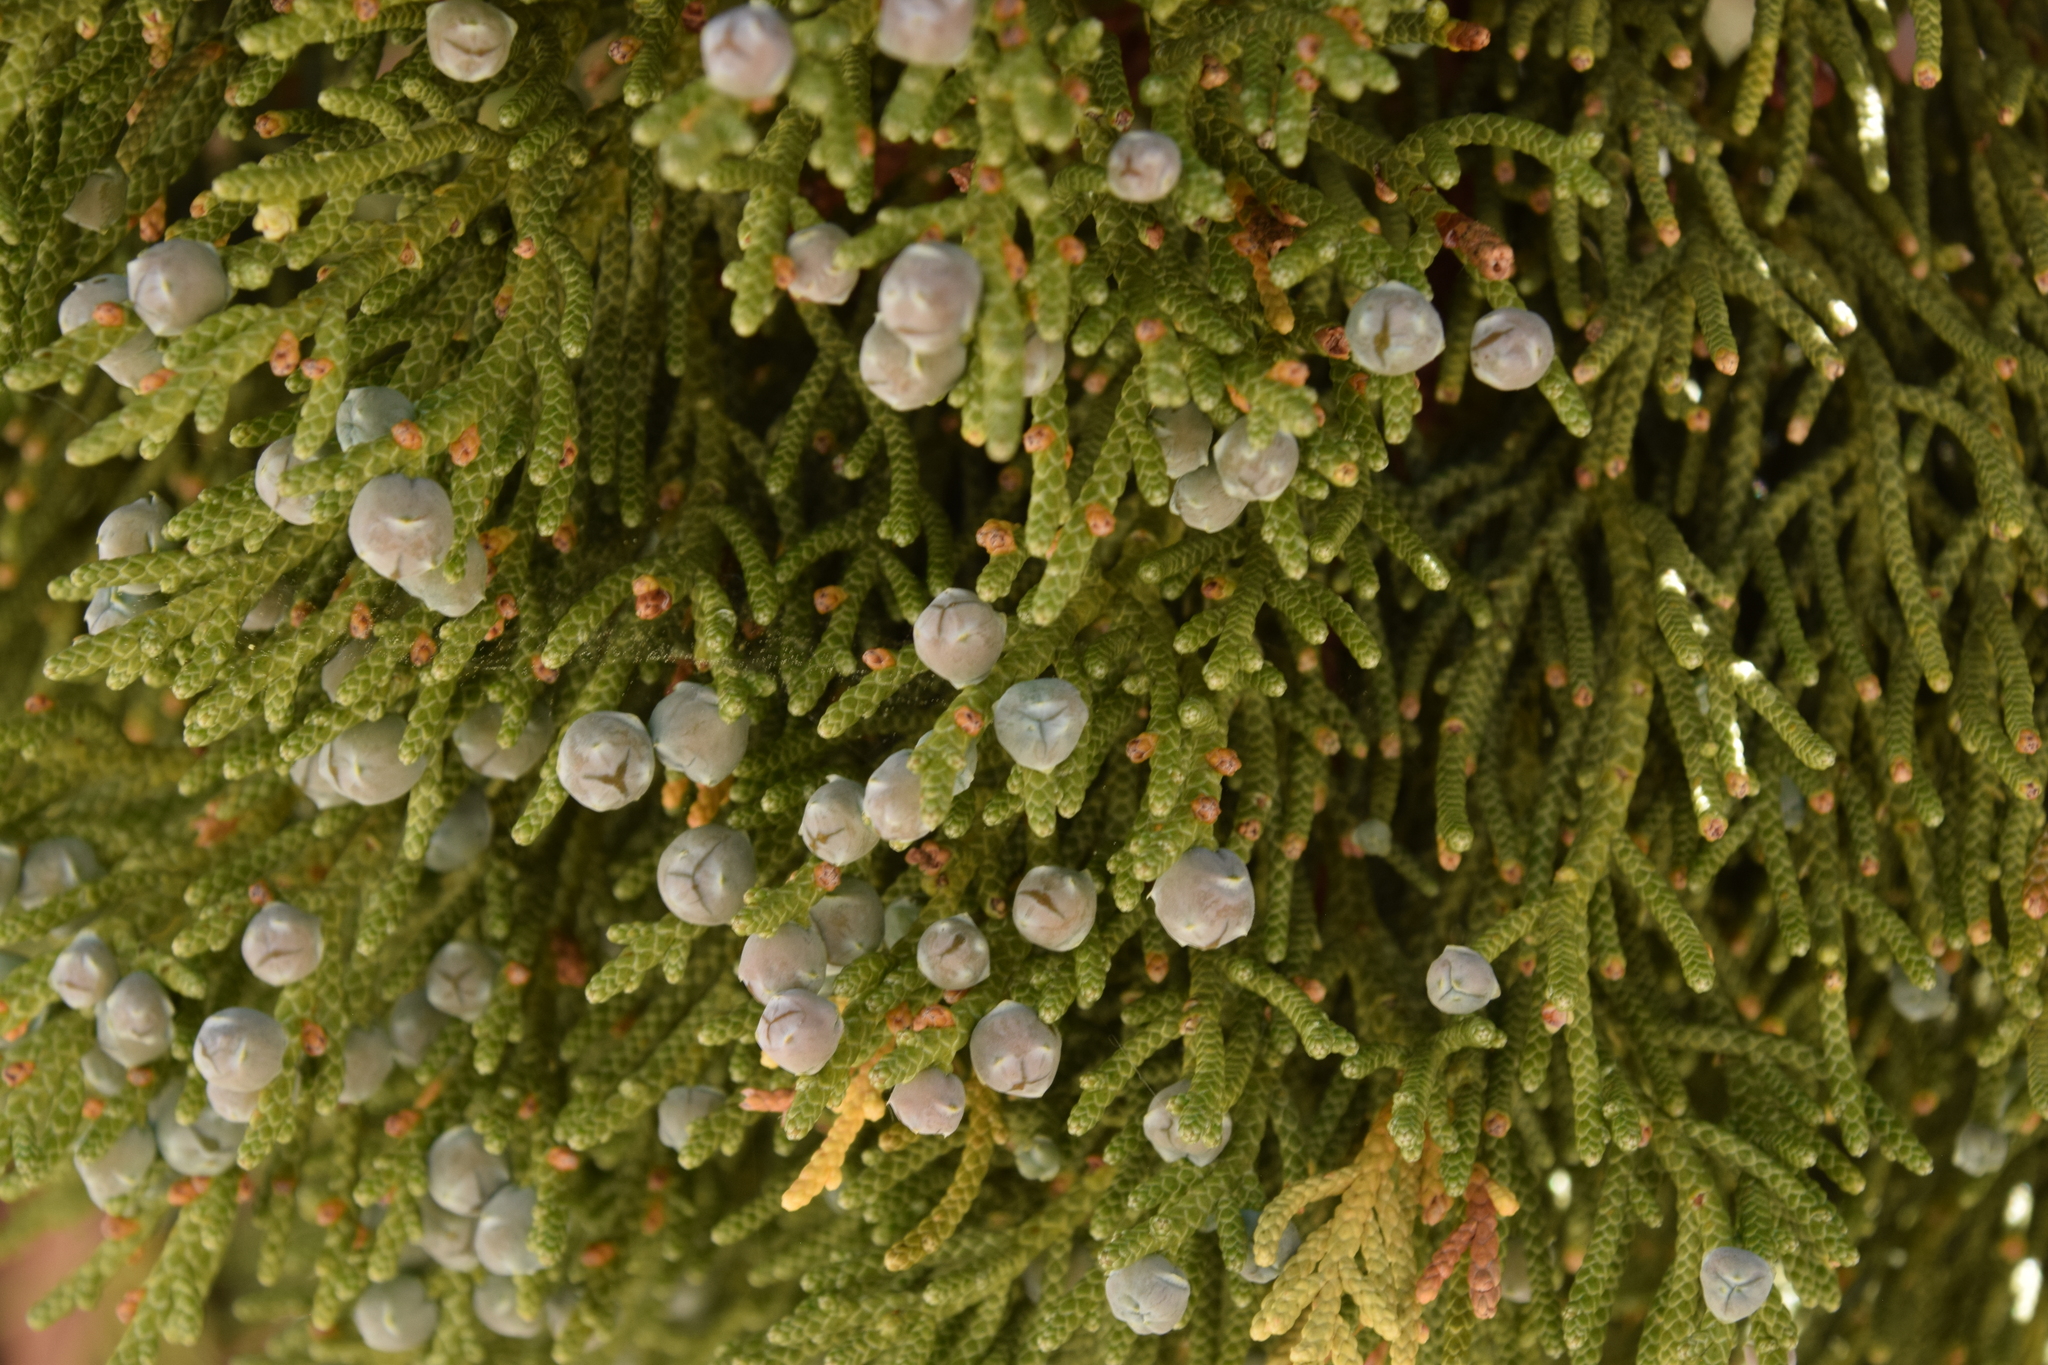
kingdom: Plantae
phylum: Tracheophyta
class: Pinopsida
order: Pinales
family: Cupressaceae
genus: Juniperus
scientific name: Juniperus occidentalis
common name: Western juniper
